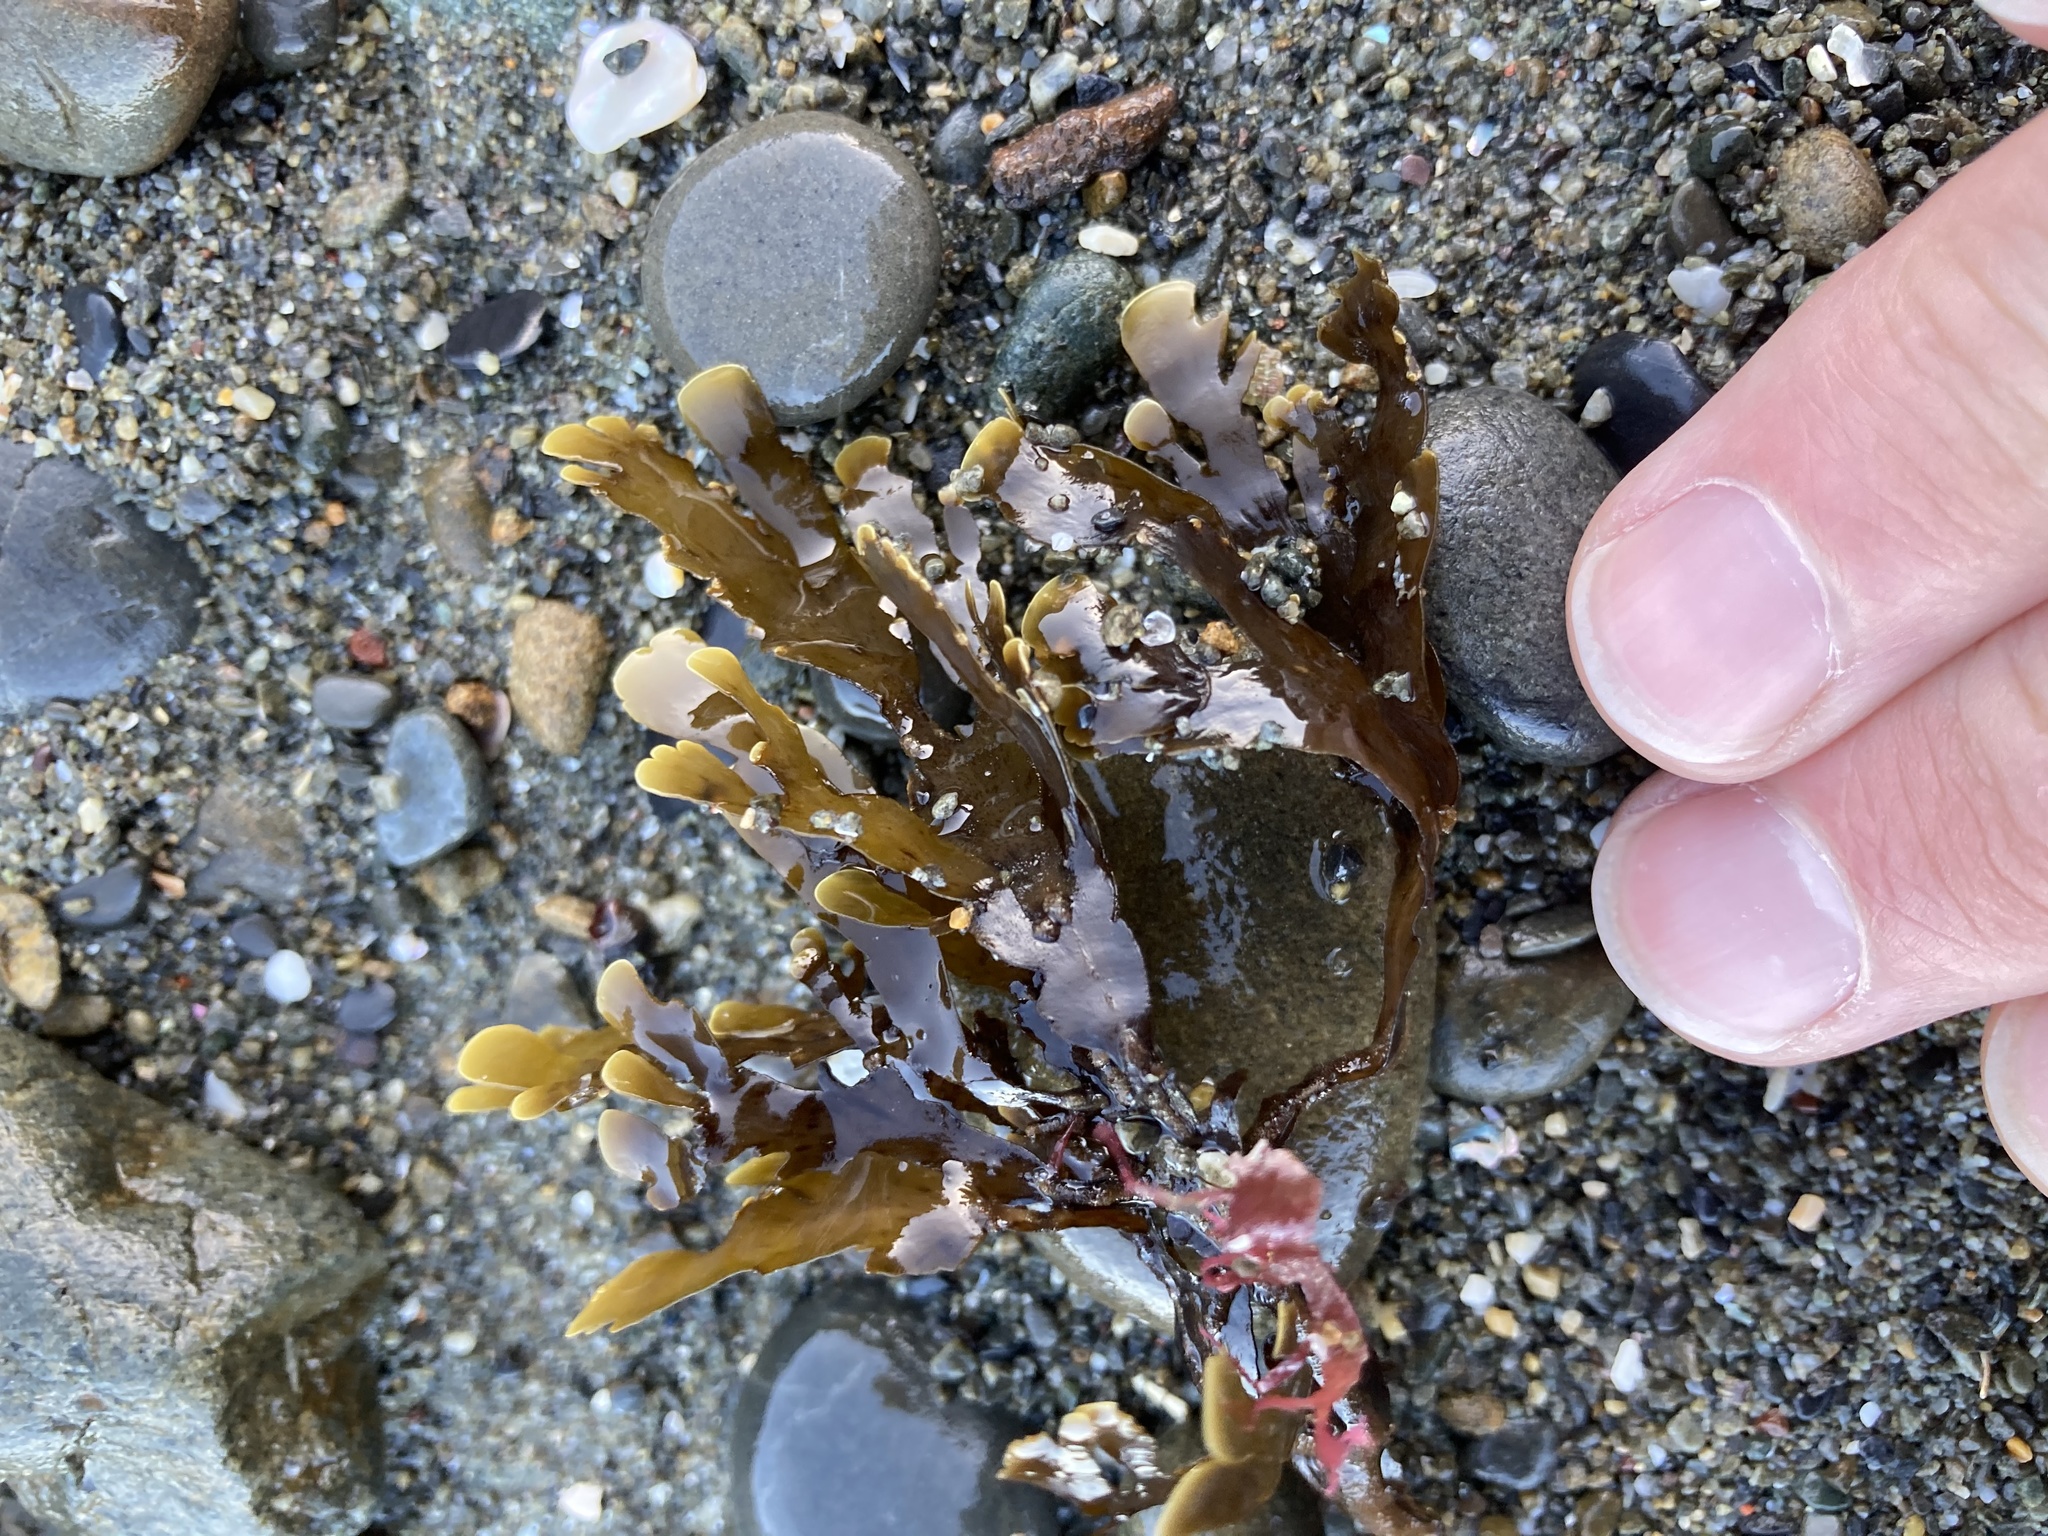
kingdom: Chromista
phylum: Ochrophyta
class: Phaeophyceae
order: Dictyotales
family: Dictyotaceae
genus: Zonaria
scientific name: Zonaria turneriana
